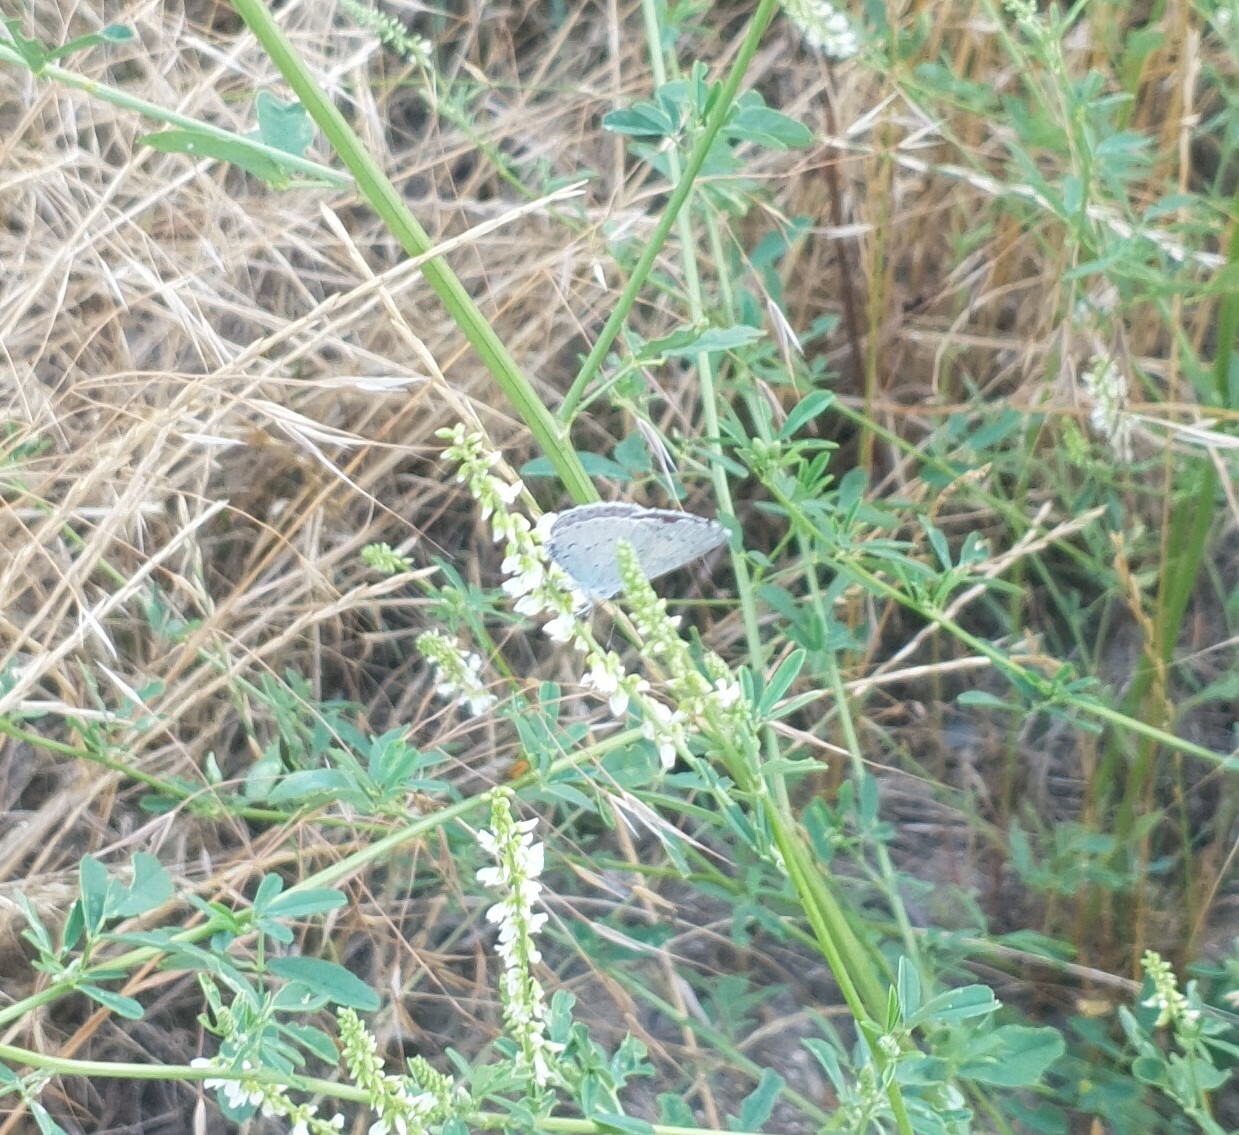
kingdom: Animalia
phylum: Arthropoda
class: Insecta
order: Lepidoptera
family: Lycaenidae
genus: Celastrina
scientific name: Celastrina argiolus
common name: Holly blue
